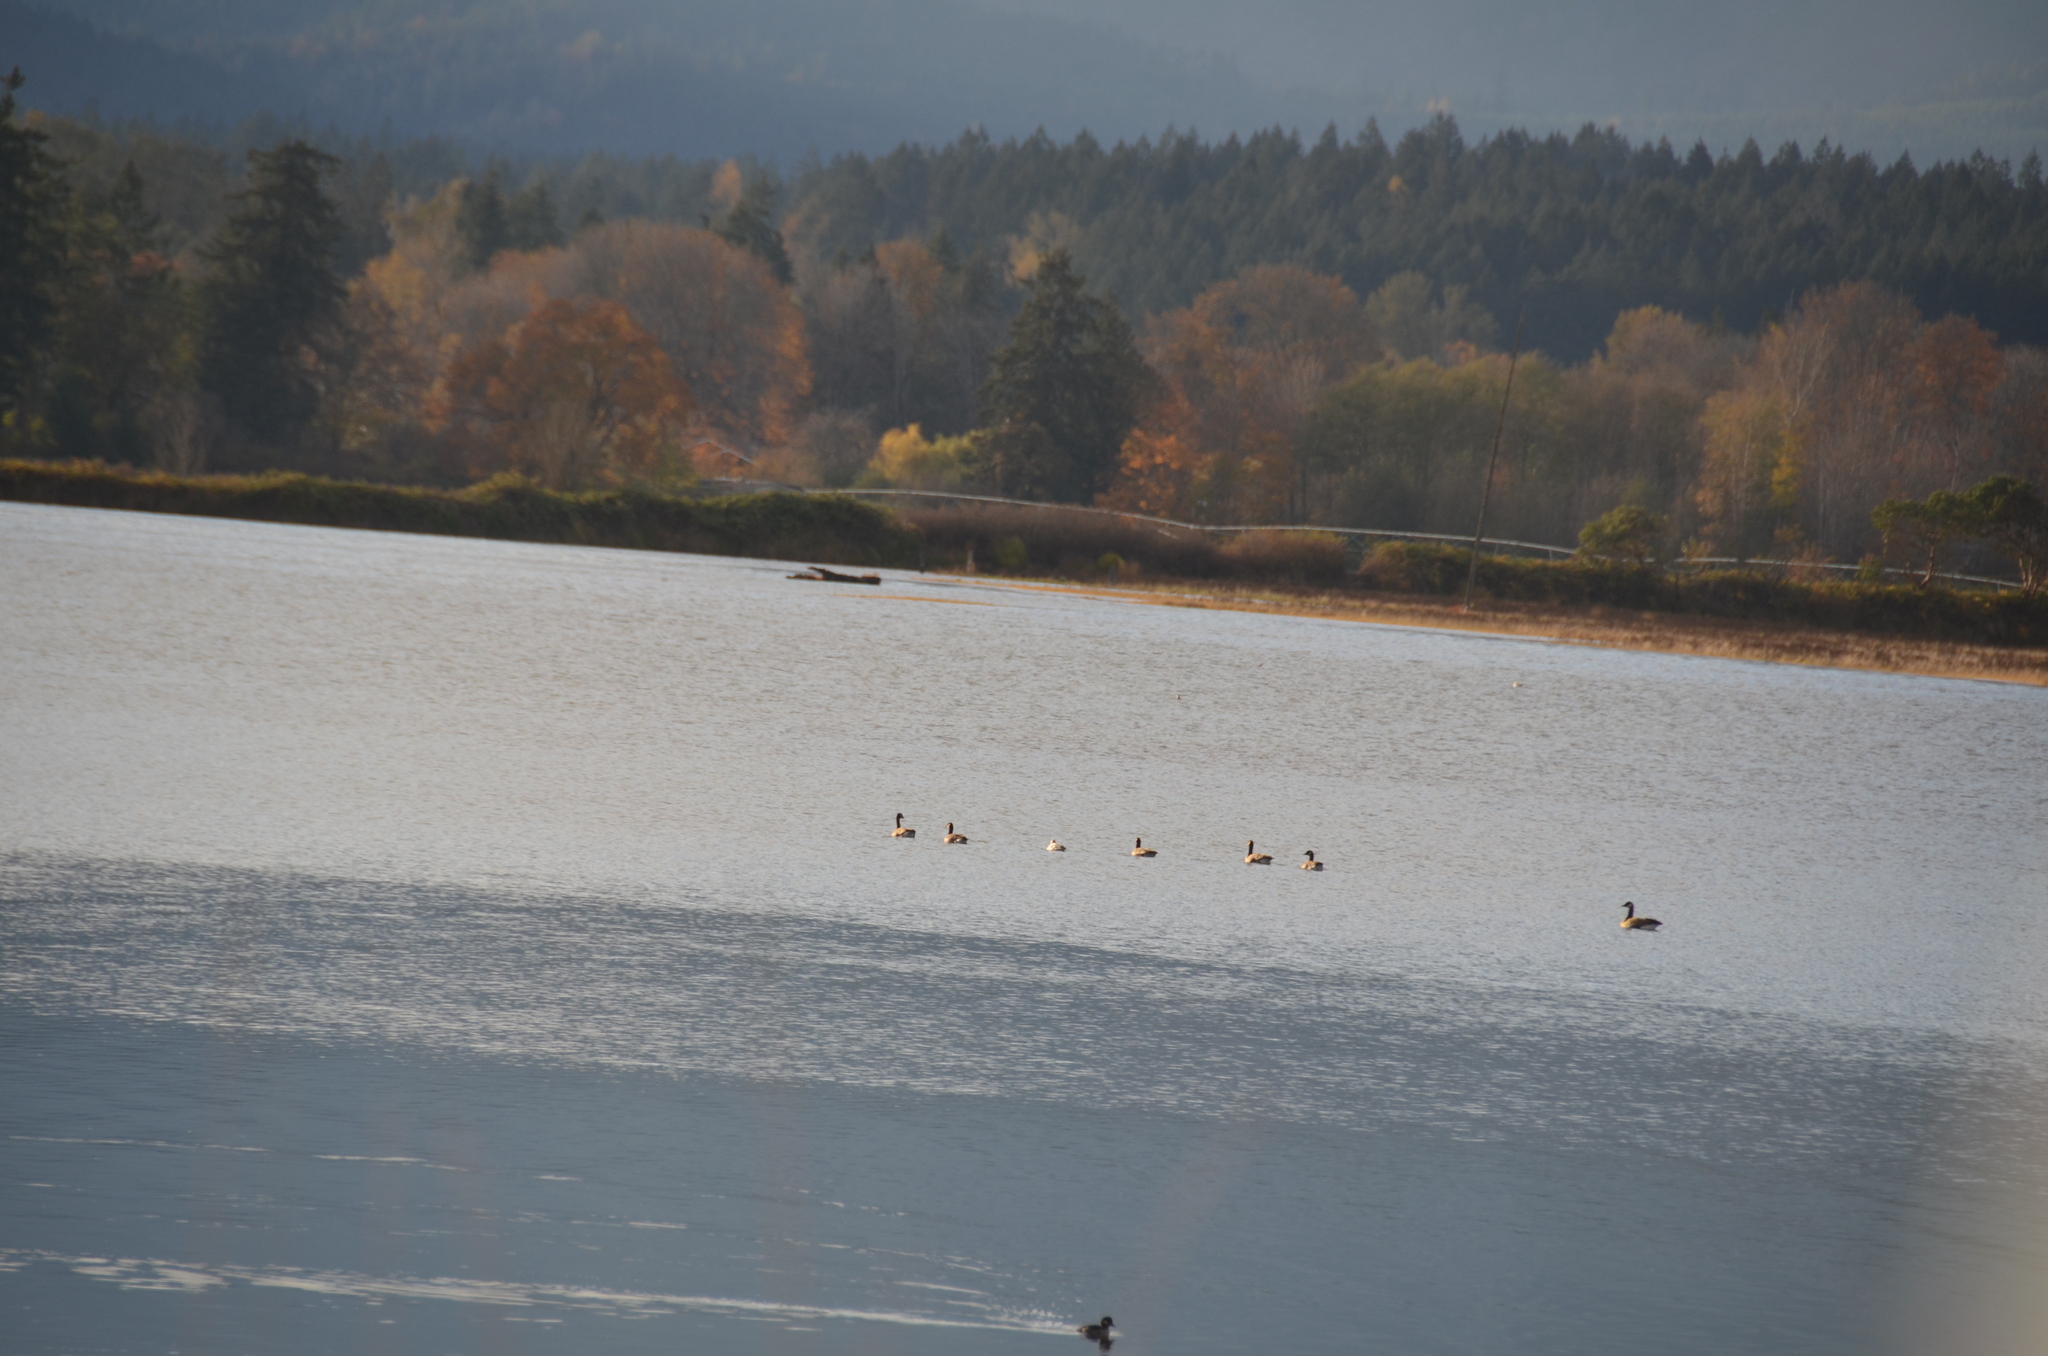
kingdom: Animalia
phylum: Chordata
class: Aves
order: Anseriformes
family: Anatidae
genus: Branta
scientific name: Branta canadensis
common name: Canada goose
